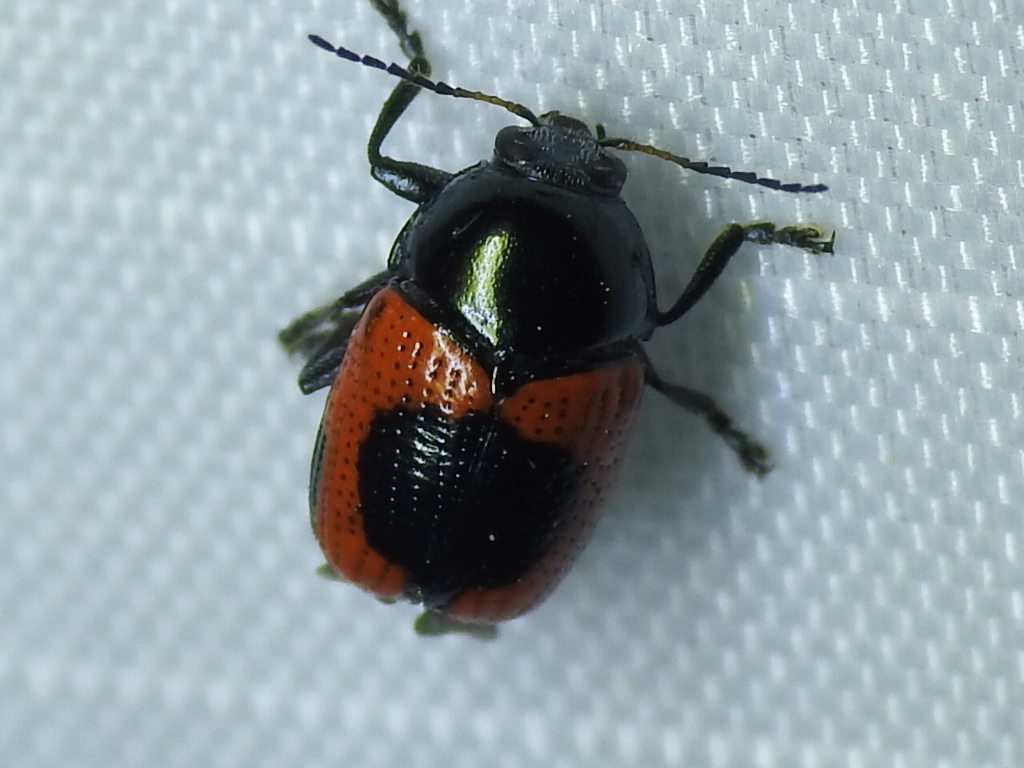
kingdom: Animalia
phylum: Arthropoda
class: Insecta
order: Coleoptera
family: Chrysomelidae
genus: Cryptocephalus
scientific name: Cryptocephalus notatus
